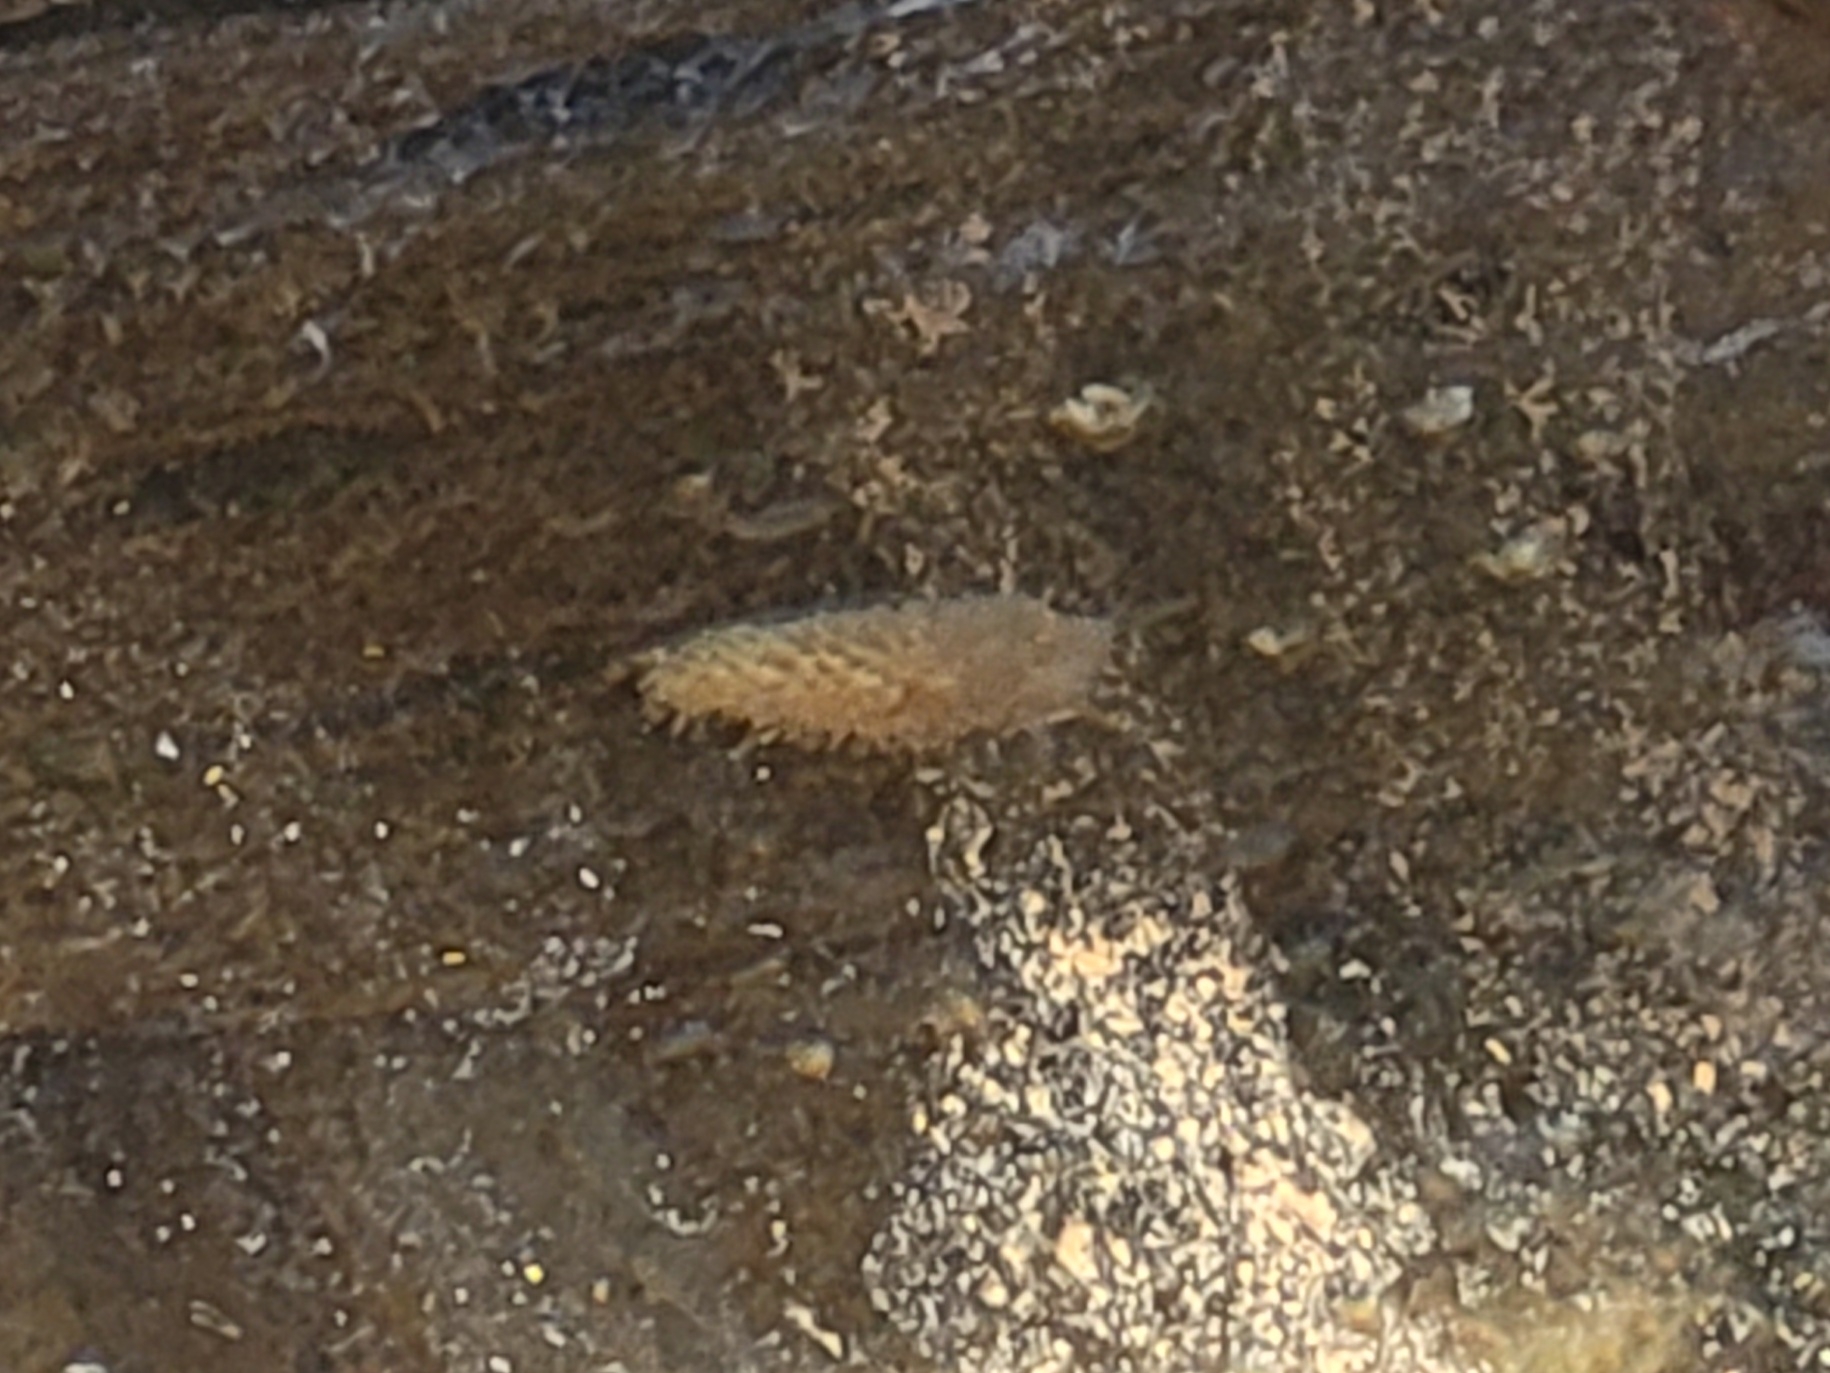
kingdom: Animalia
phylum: Mollusca
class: Gastropoda
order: Nudibranchia
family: Aeolidiidae
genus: Aeolidia
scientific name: Aeolidia papillosa
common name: Common grey sea slug
